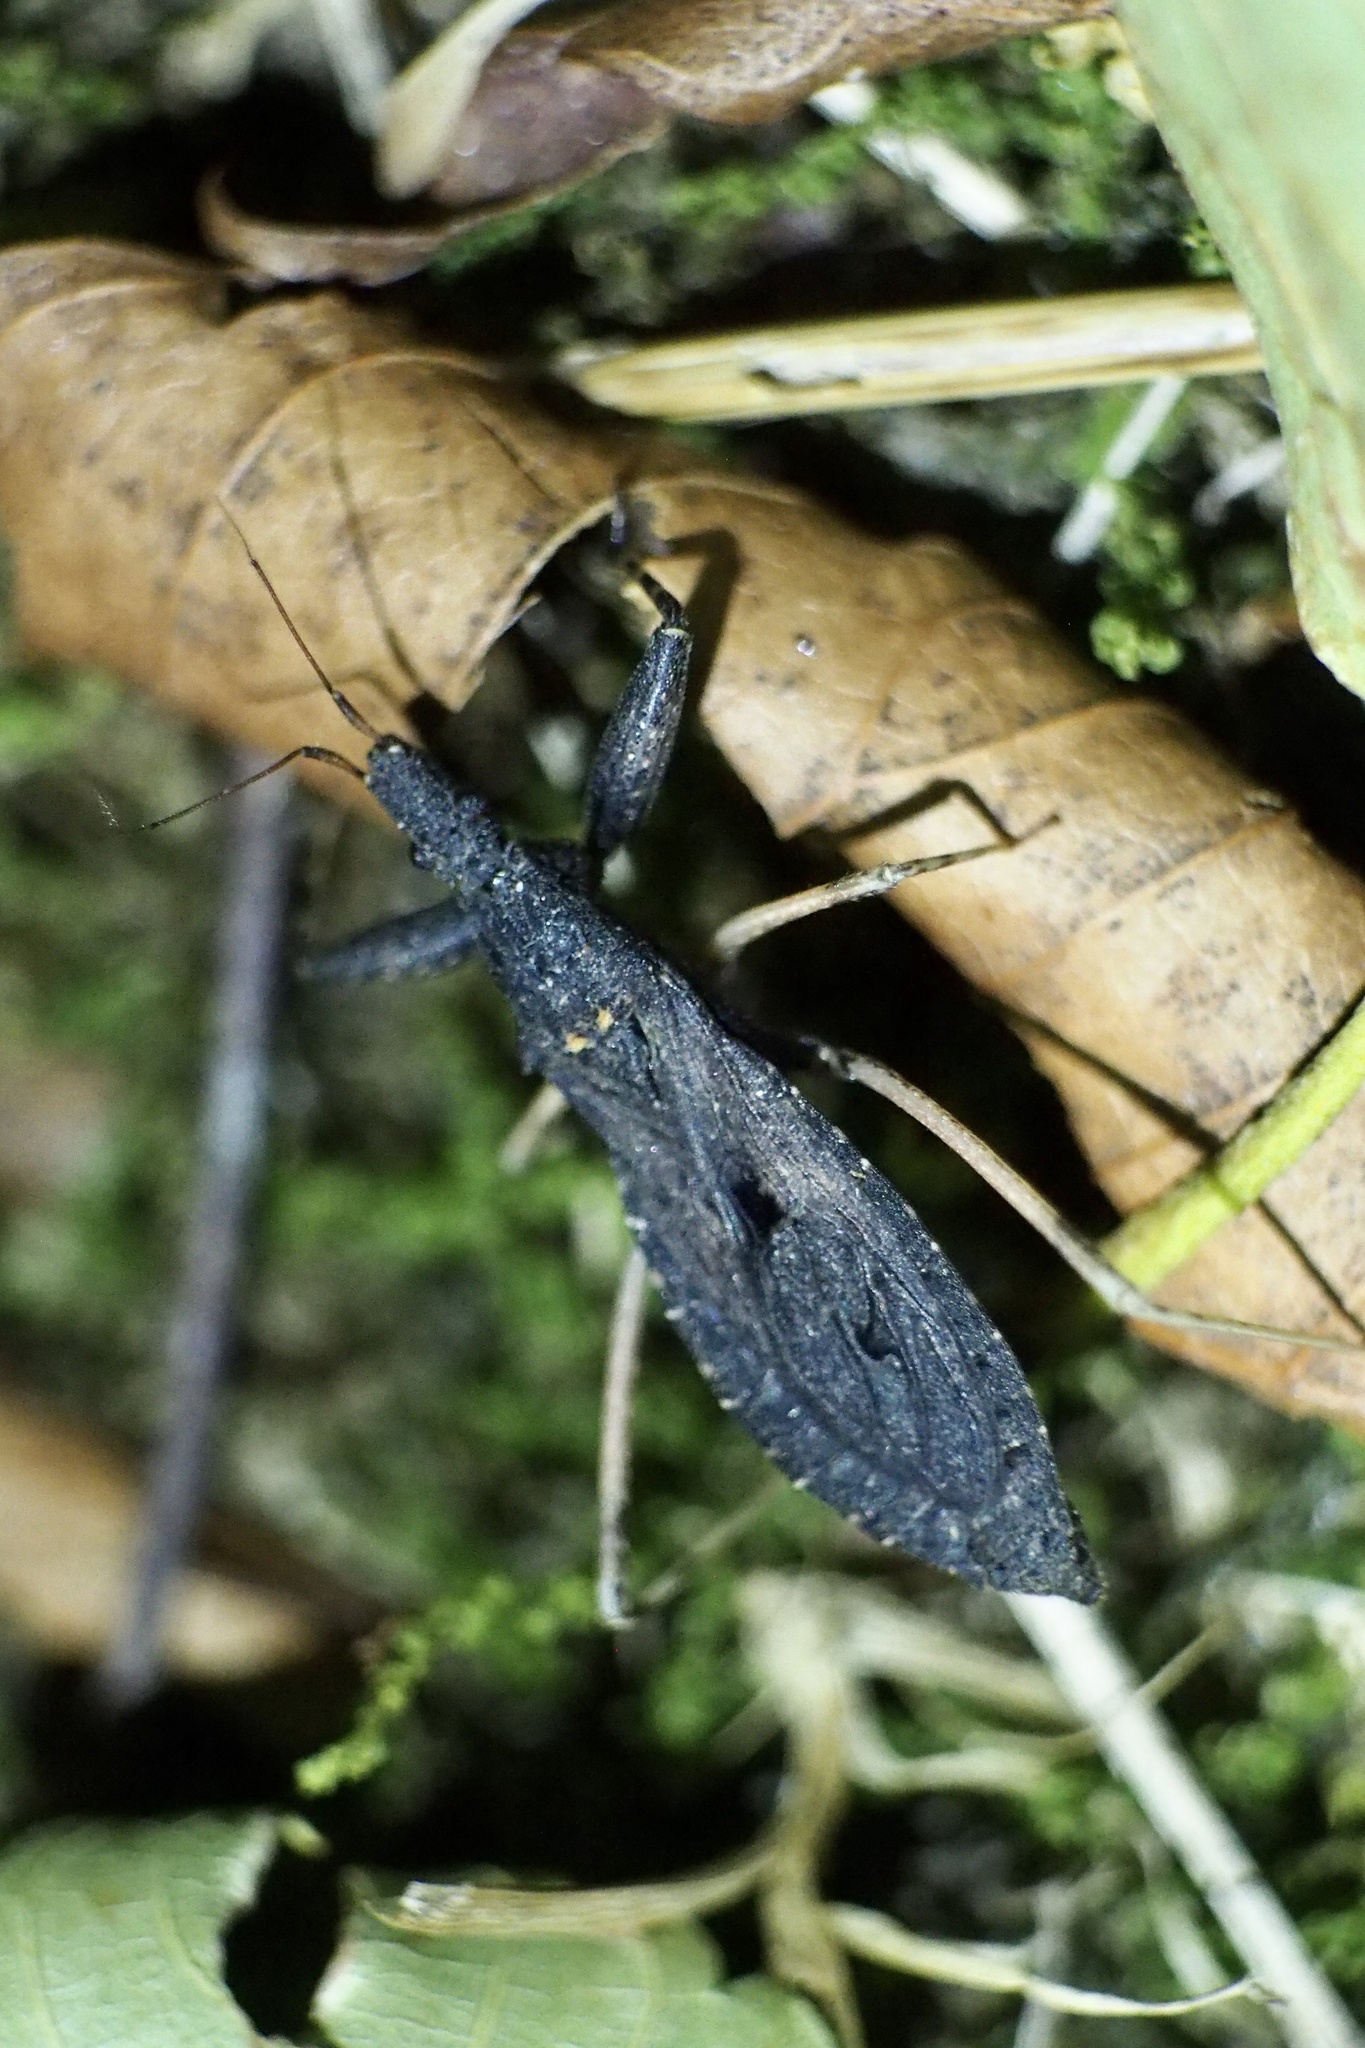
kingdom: Animalia
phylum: Arthropoda
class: Insecta
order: Hemiptera
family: Reduviidae
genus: Oncocephalus
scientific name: Oncocephalus breviscutum
